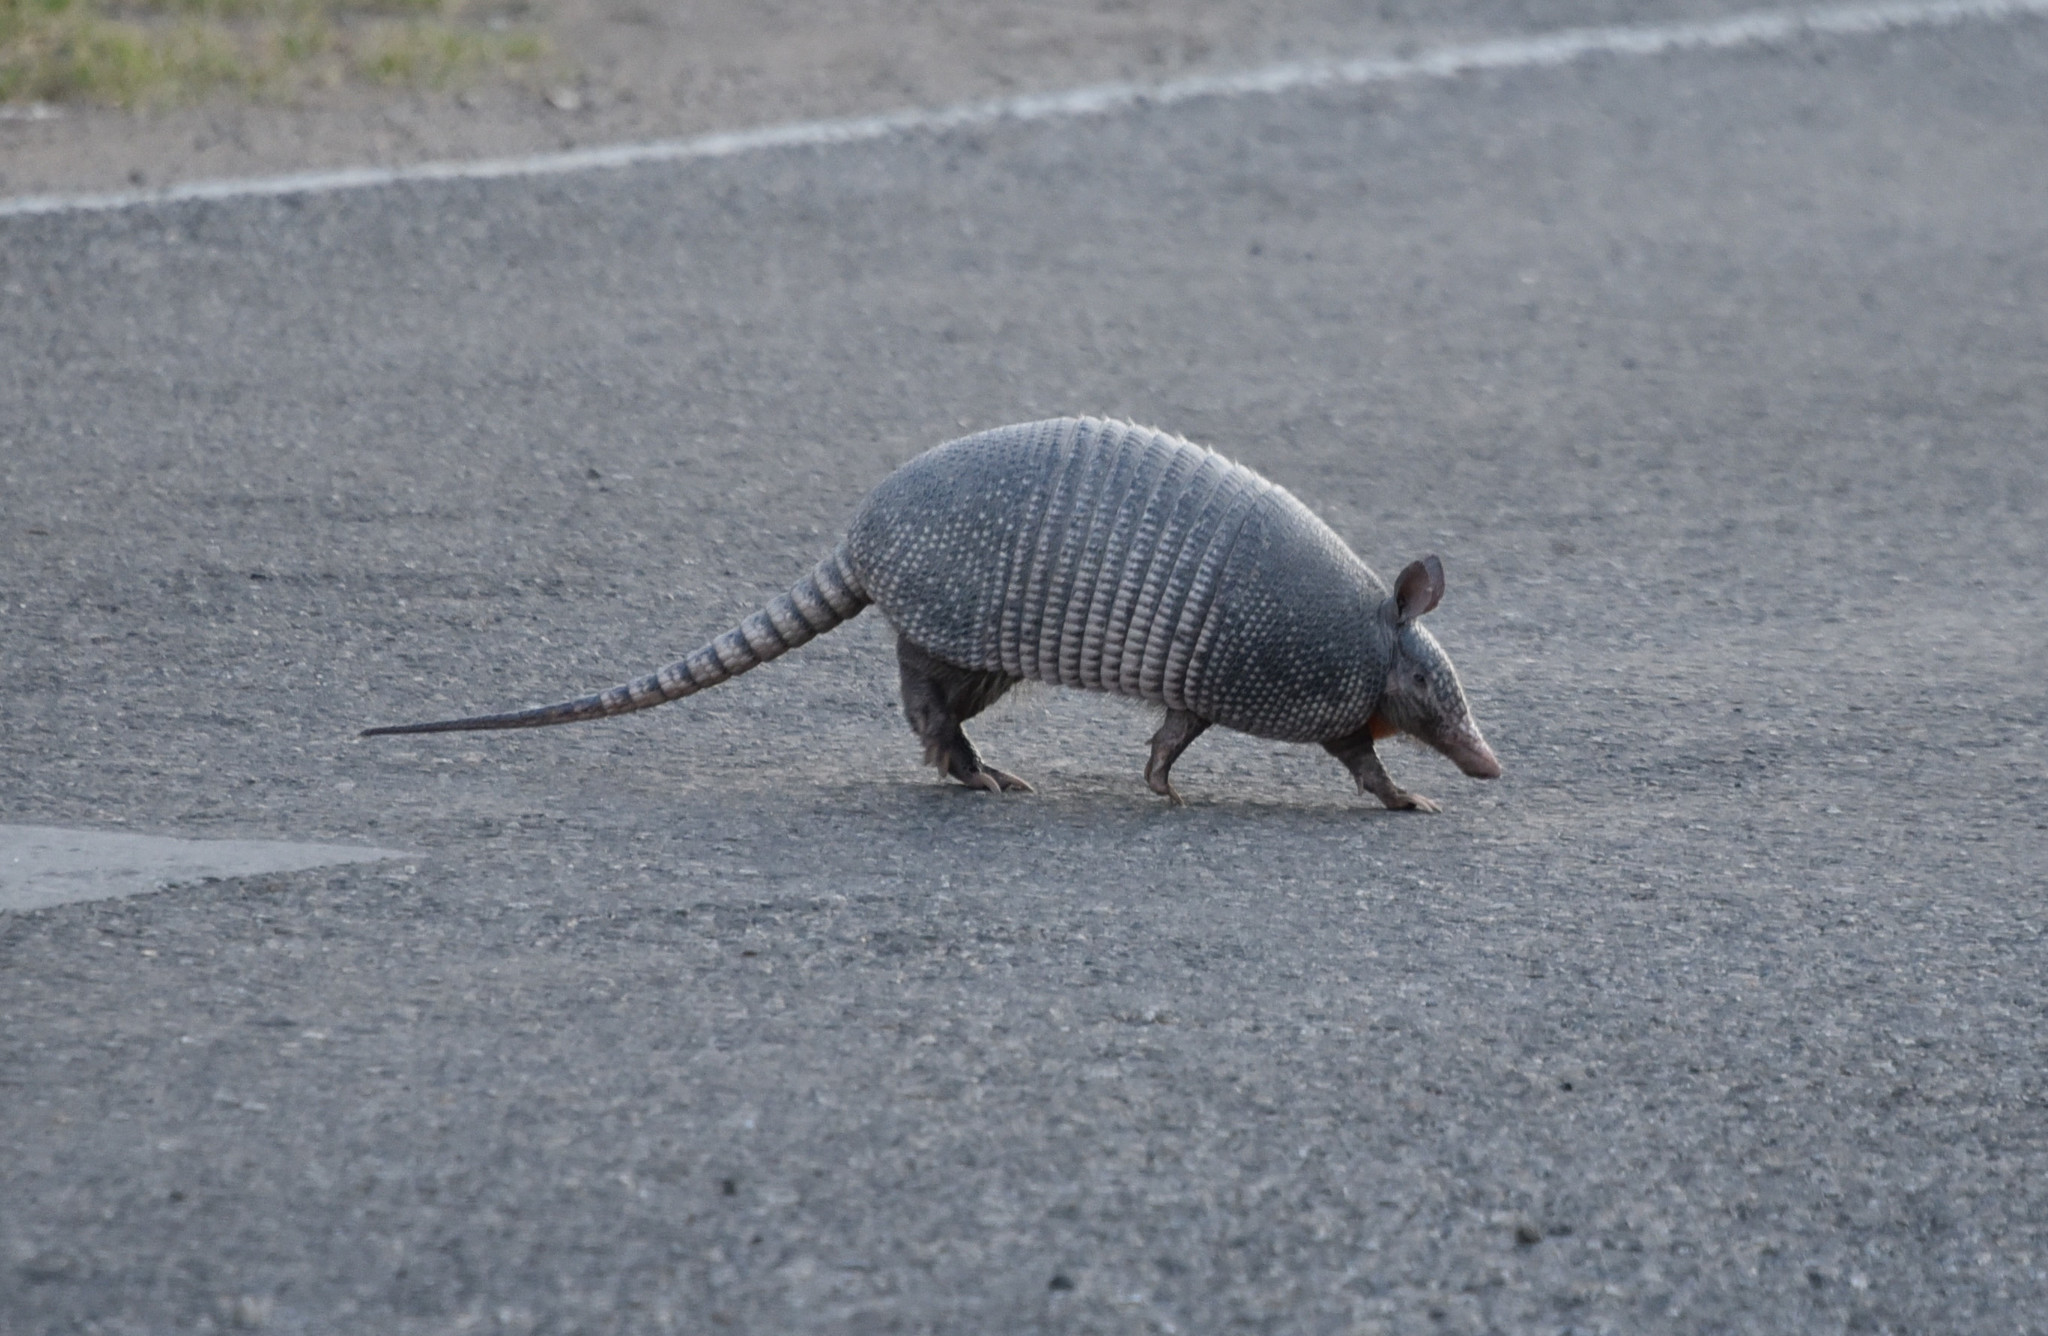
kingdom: Animalia
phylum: Chordata
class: Mammalia
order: Cingulata
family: Dasypodidae
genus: Dasypus
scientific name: Dasypus novemcinctus
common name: Nine-banded armadillo
